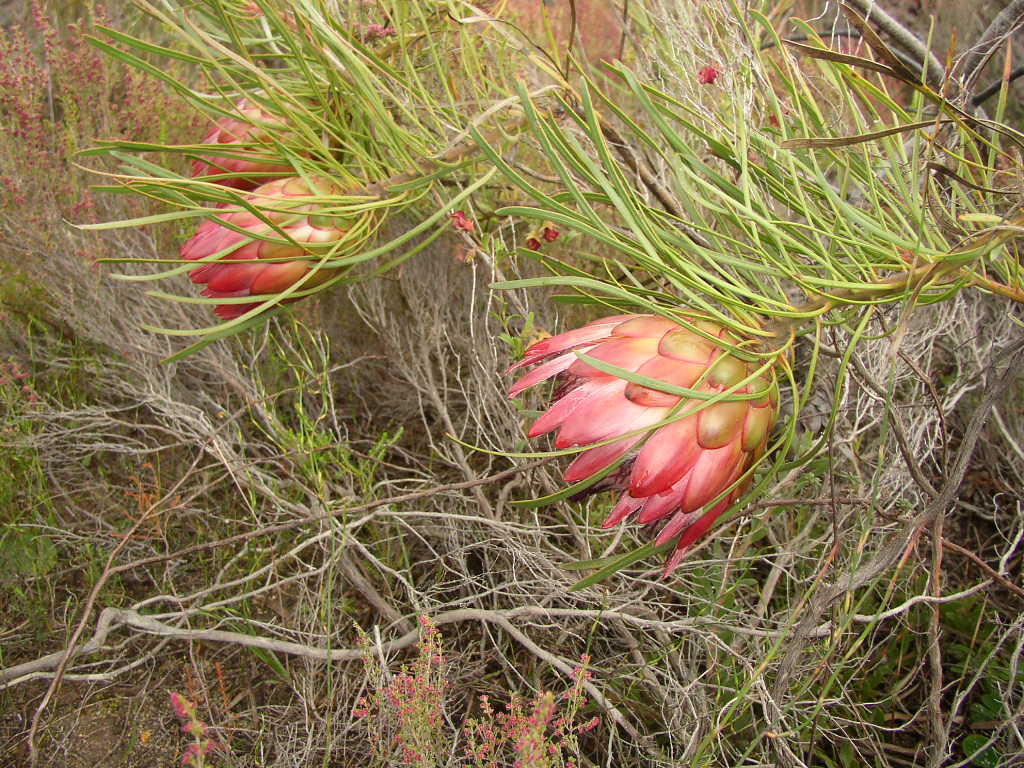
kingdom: Plantae
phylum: Tracheophyta
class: Magnoliopsida
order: Proteales
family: Proteaceae
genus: Protea
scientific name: Protea pudens
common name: Bashful sugarbush
